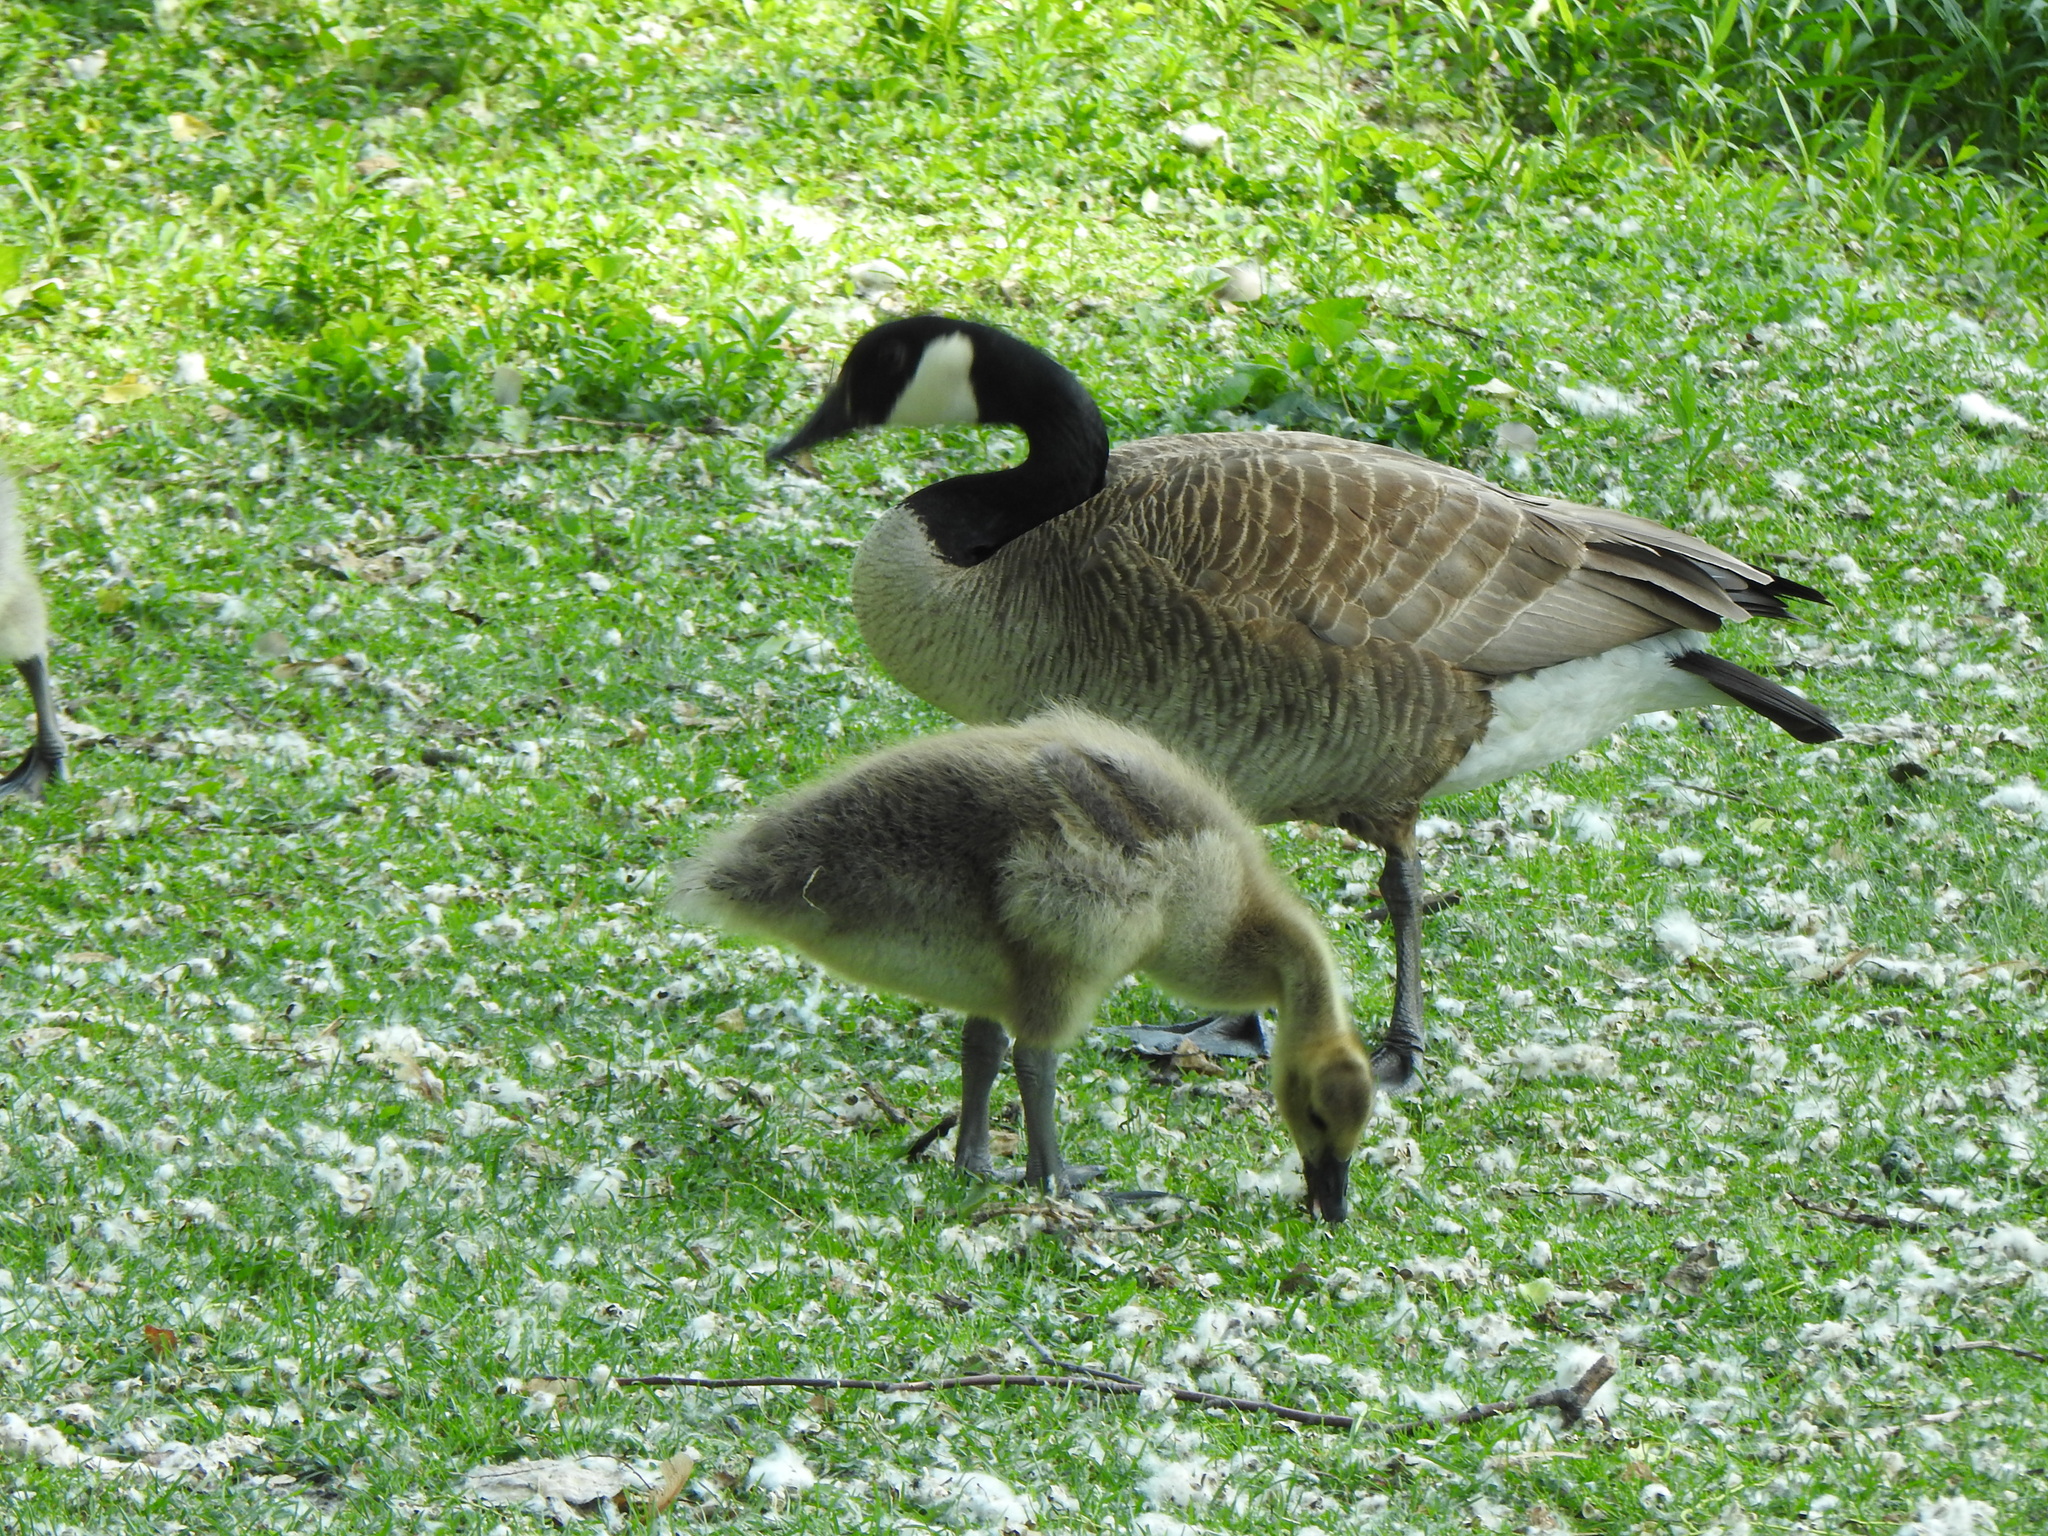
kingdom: Animalia
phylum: Chordata
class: Aves
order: Anseriformes
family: Anatidae
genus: Branta
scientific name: Branta canadensis
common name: Canada goose
